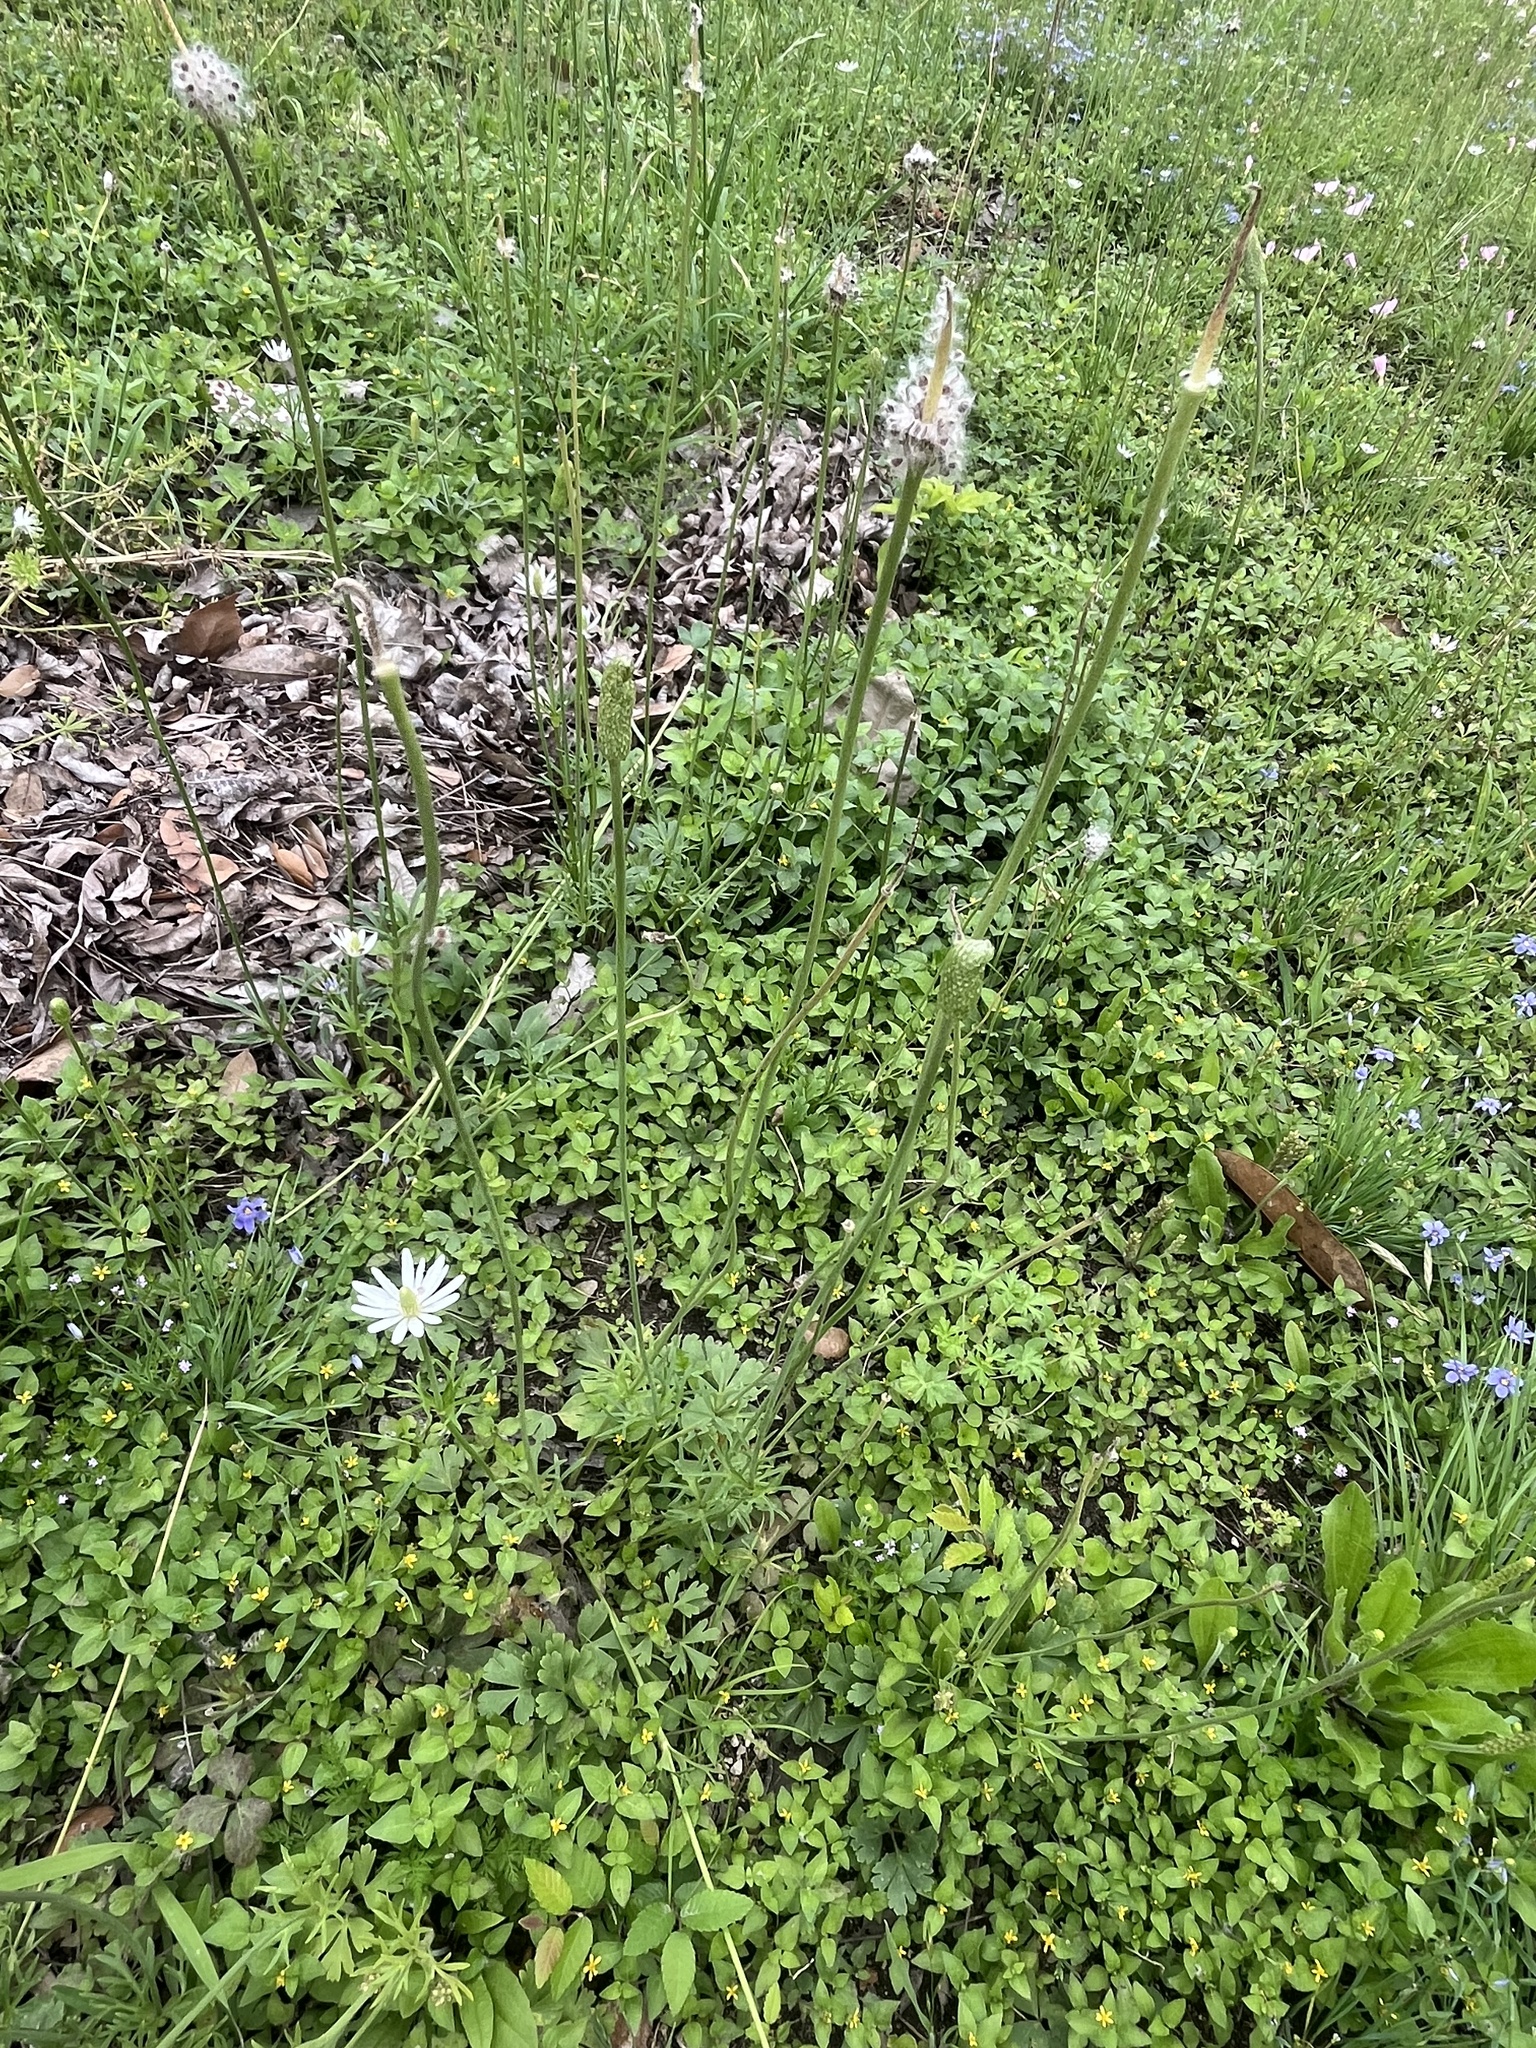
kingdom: Plantae
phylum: Tracheophyta
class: Magnoliopsida
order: Ranunculales
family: Ranunculaceae
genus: Anemone
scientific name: Anemone berlandieri
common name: Ten-petal anemone
